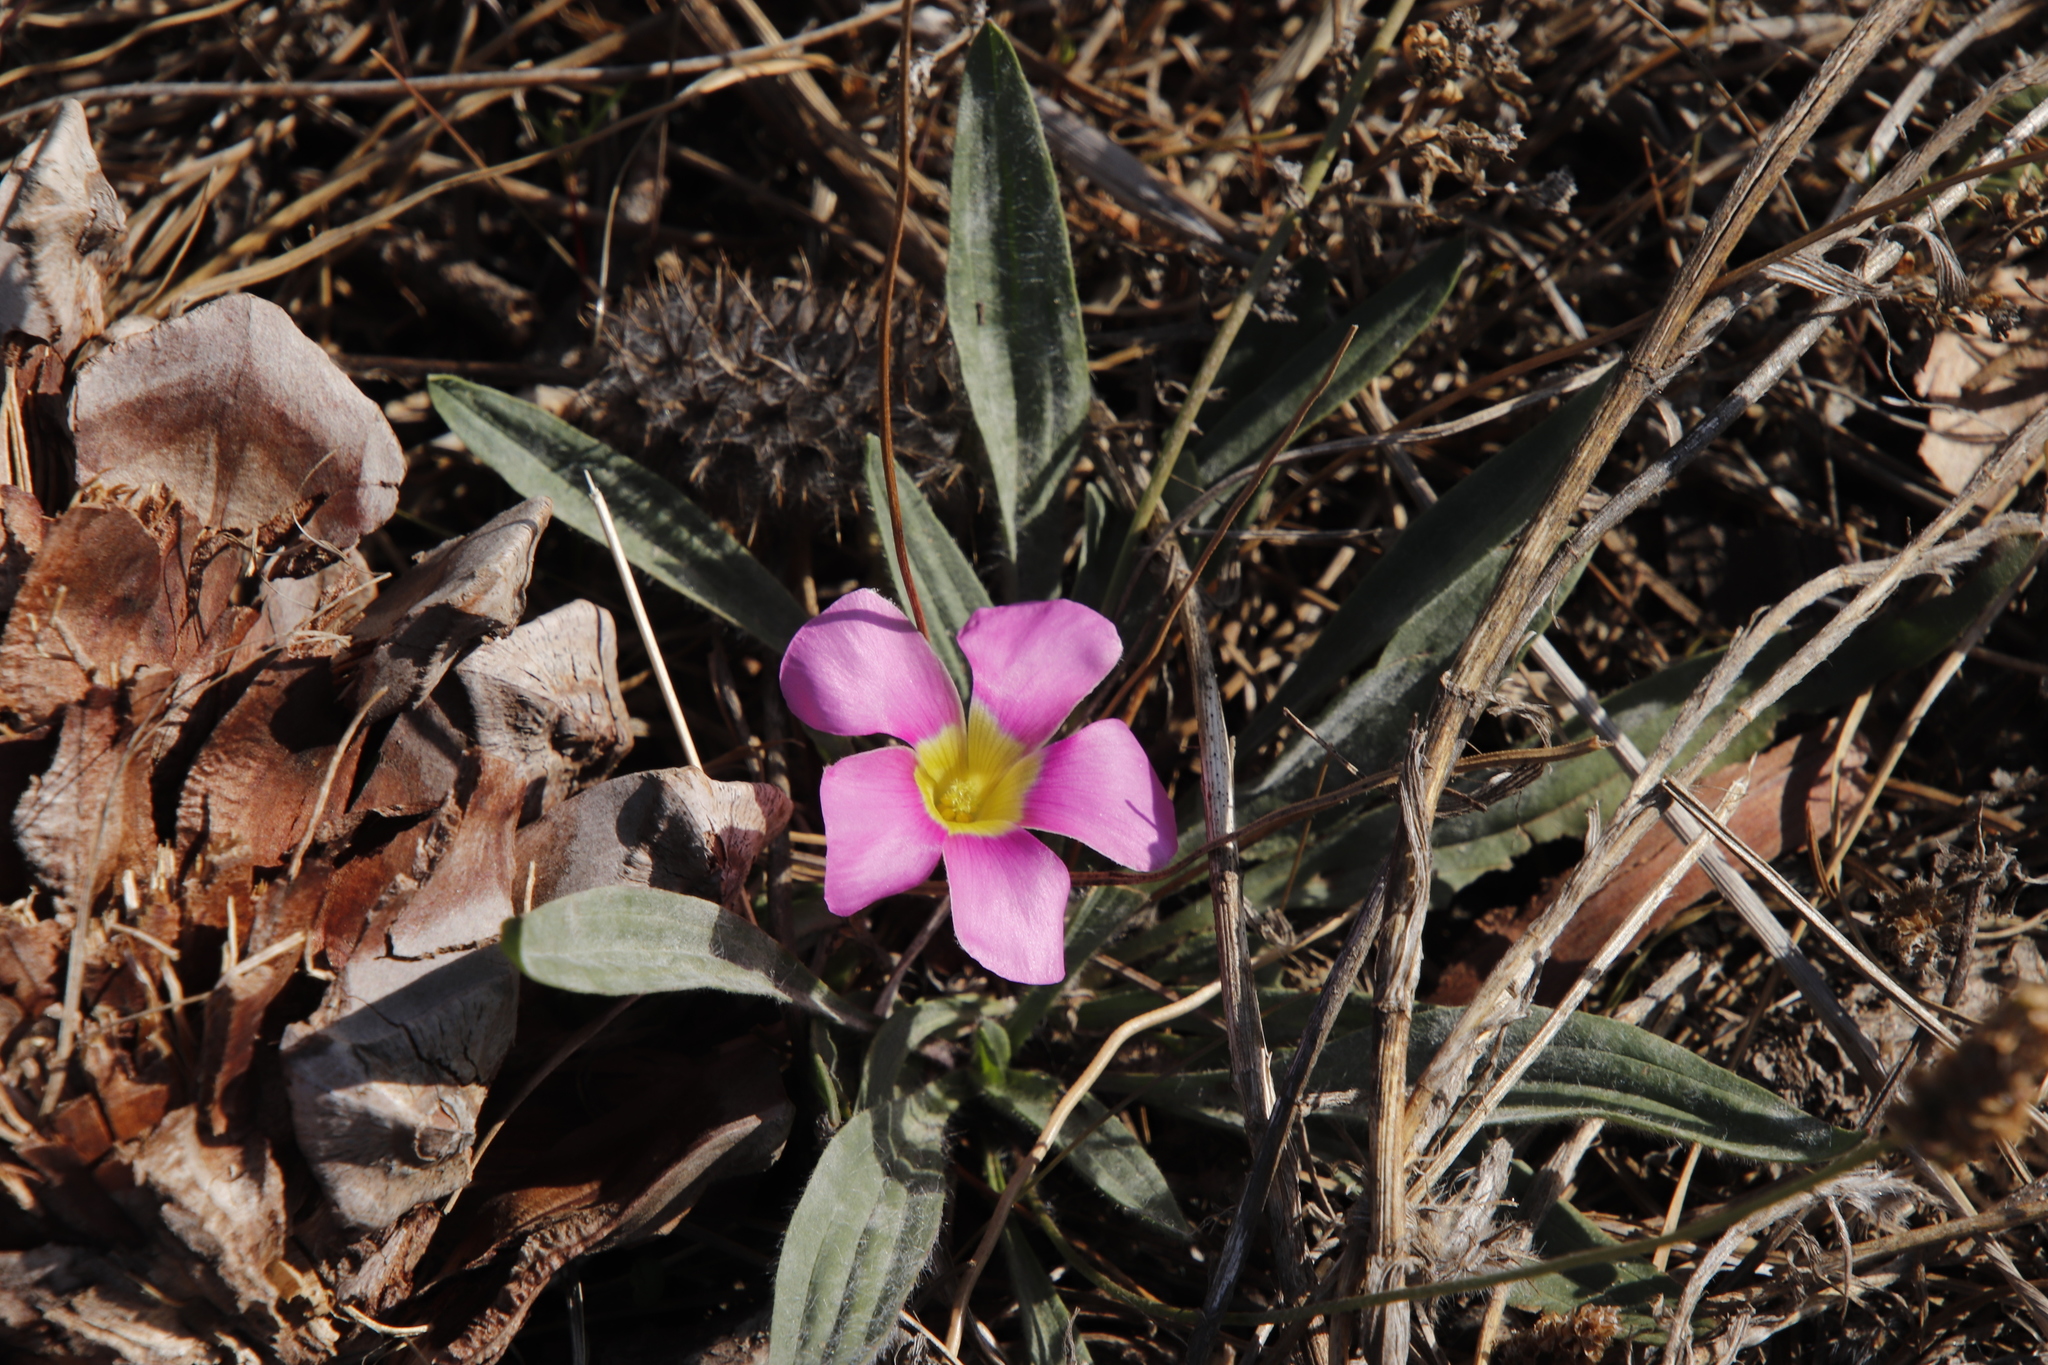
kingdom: Plantae
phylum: Tracheophyta
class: Magnoliopsida
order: Oxalidales
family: Oxalidaceae
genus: Oxalis
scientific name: Oxalis purpurea
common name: Purple woodsorrel
